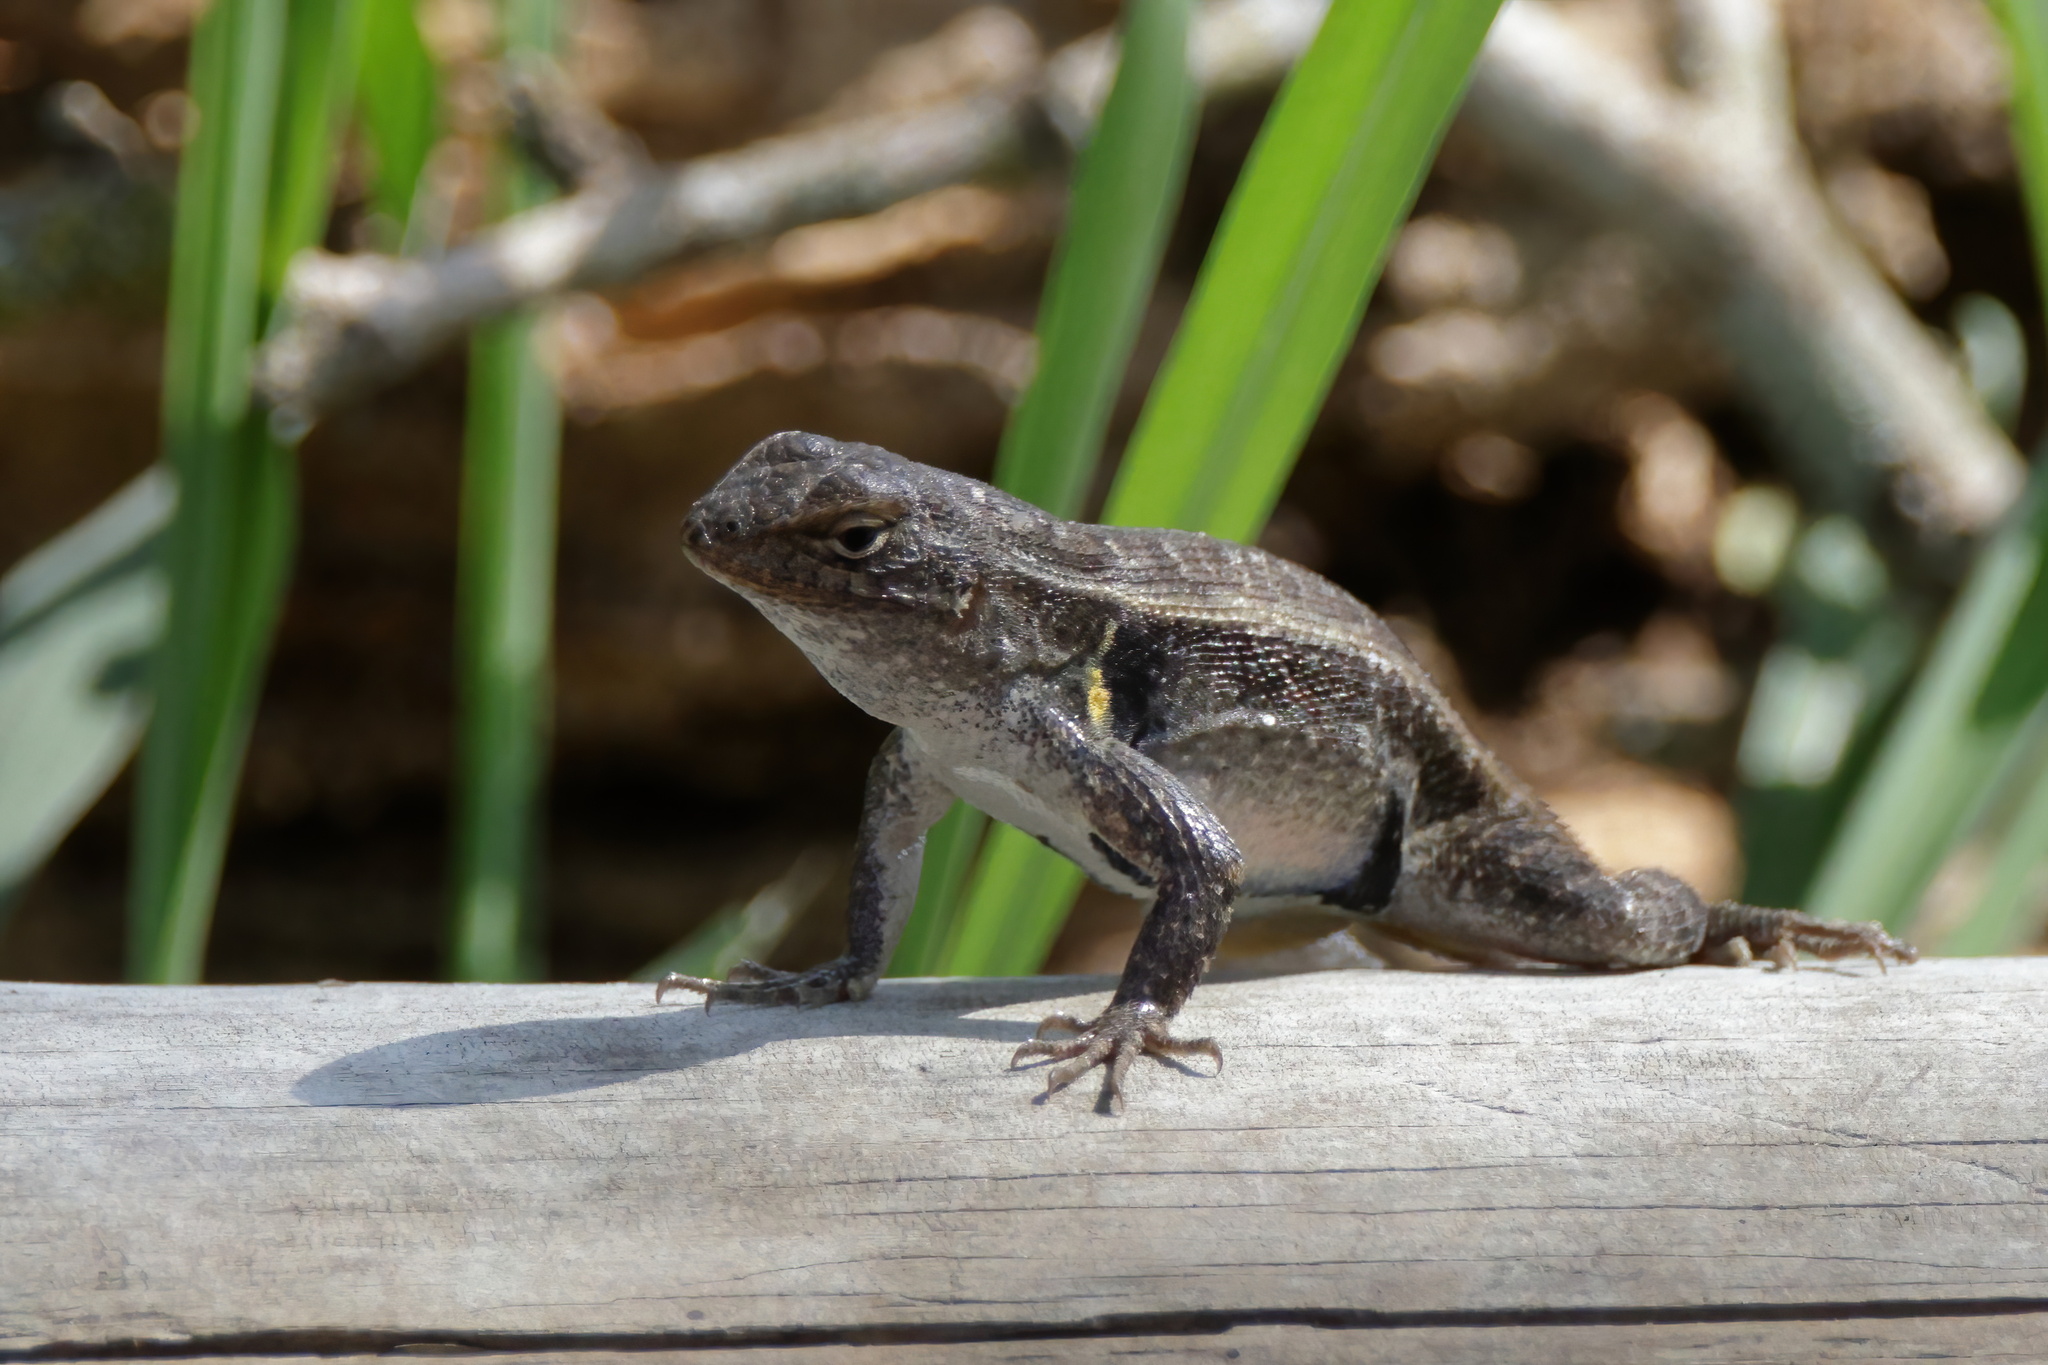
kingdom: Animalia
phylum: Chordata
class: Squamata
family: Phrynosomatidae
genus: Sceloporus
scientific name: Sceloporus variabilis
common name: Rosebelly lizard
